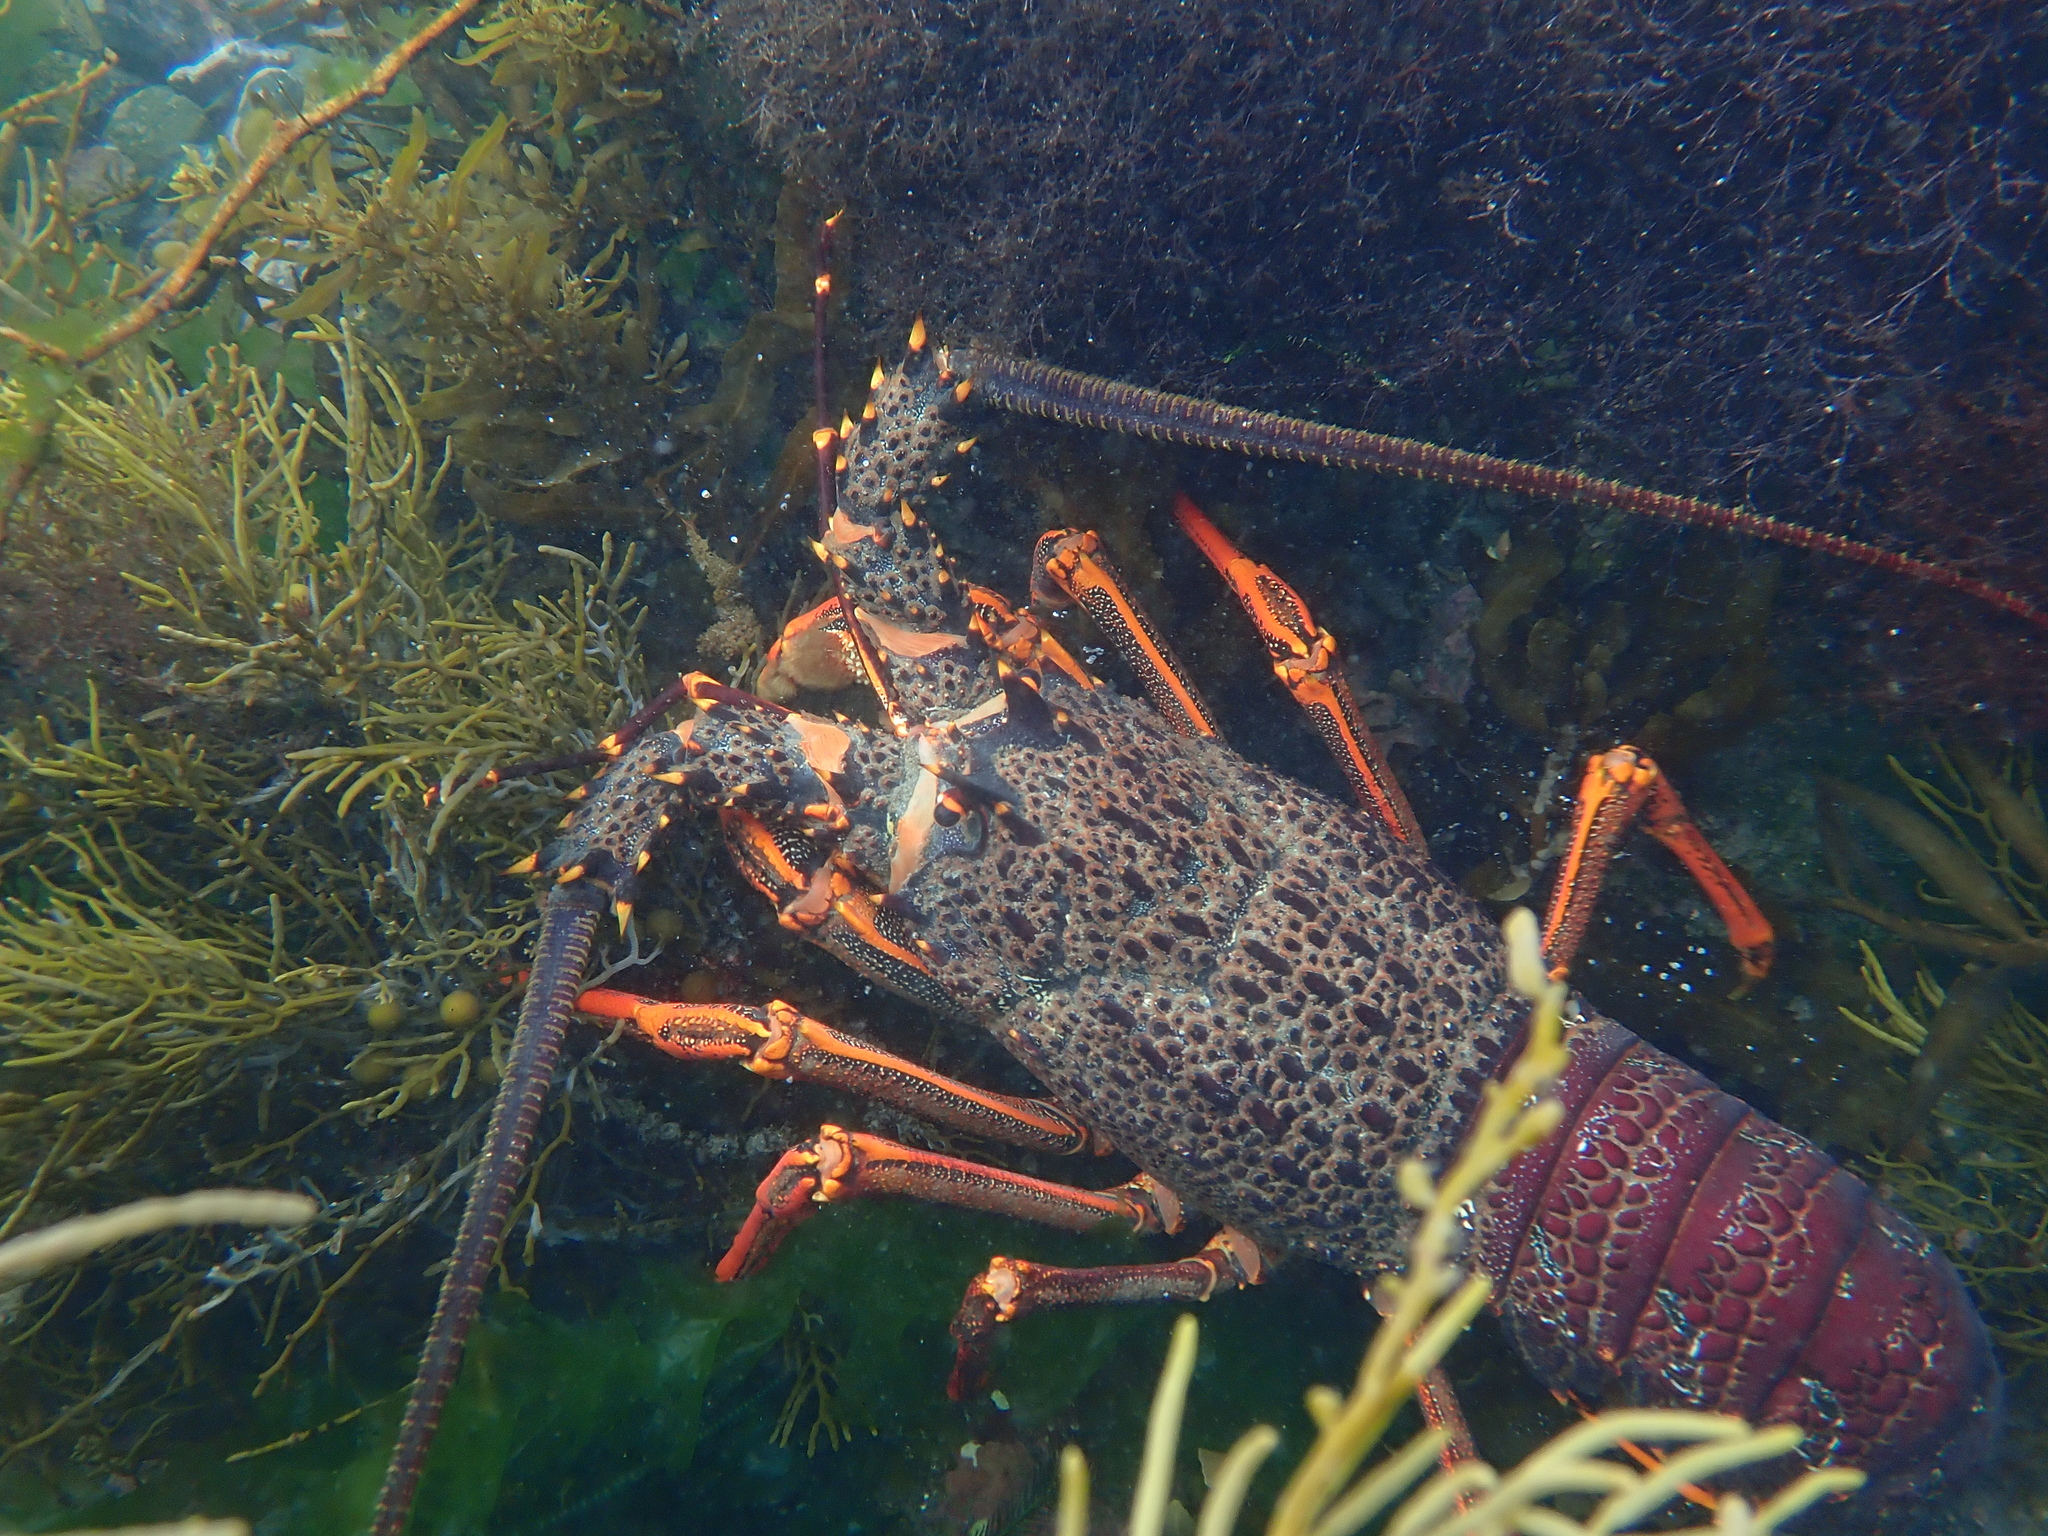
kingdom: Animalia
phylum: Arthropoda
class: Malacostraca
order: Decapoda
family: Palinuridae
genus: Jasus
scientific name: Jasus edwardsii
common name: Red rock lobster
